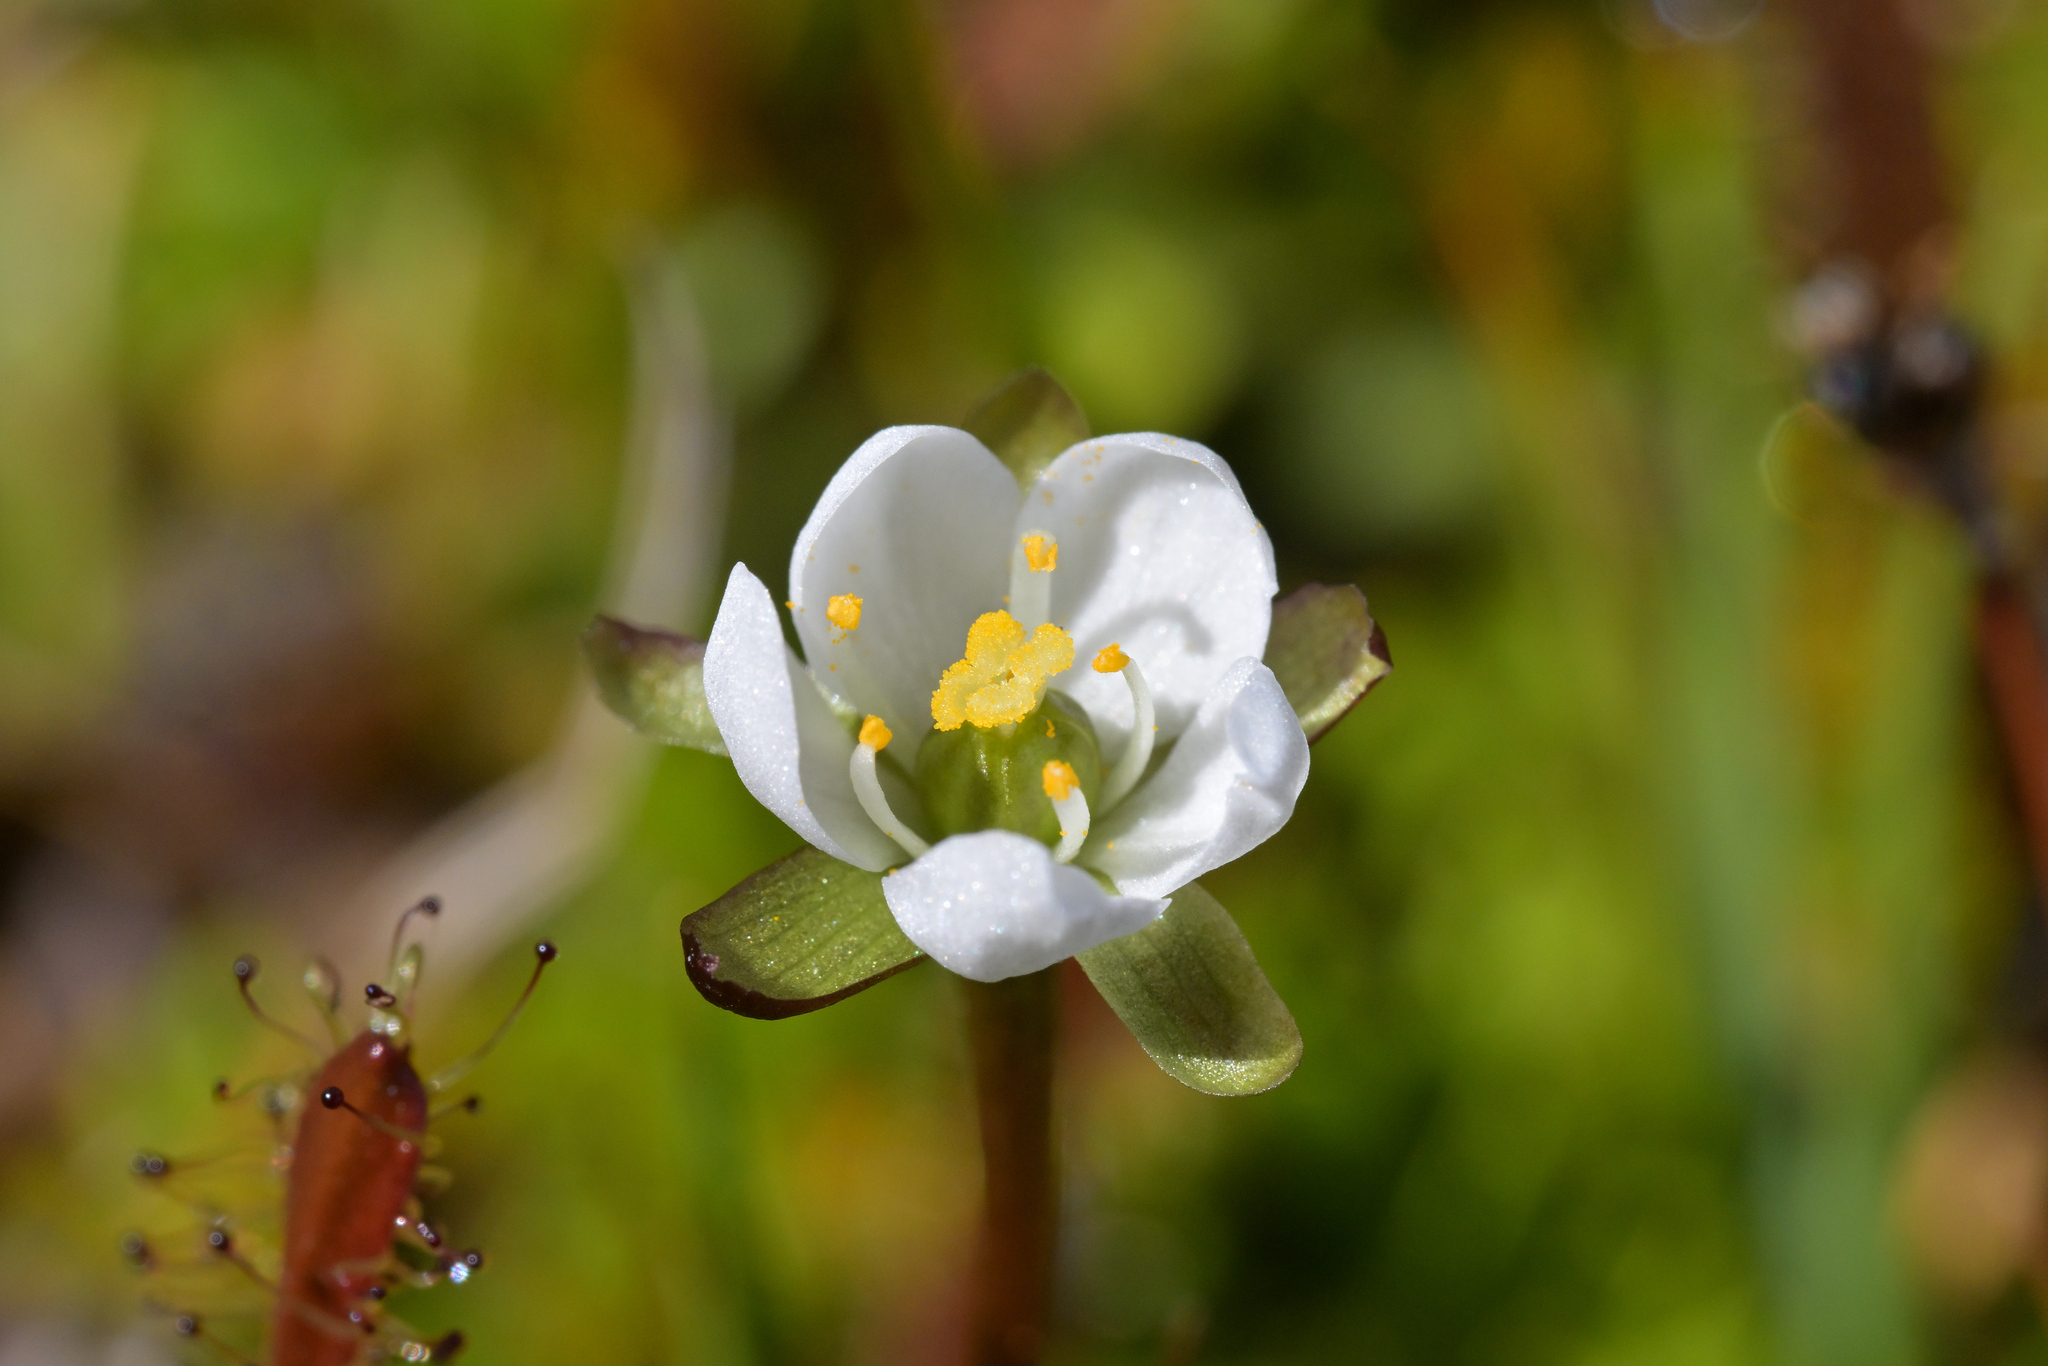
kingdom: Plantae
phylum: Tracheophyta
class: Magnoliopsida
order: Caryophyllales
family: Droseraceae
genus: Drosera
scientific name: Drosera arcturi
